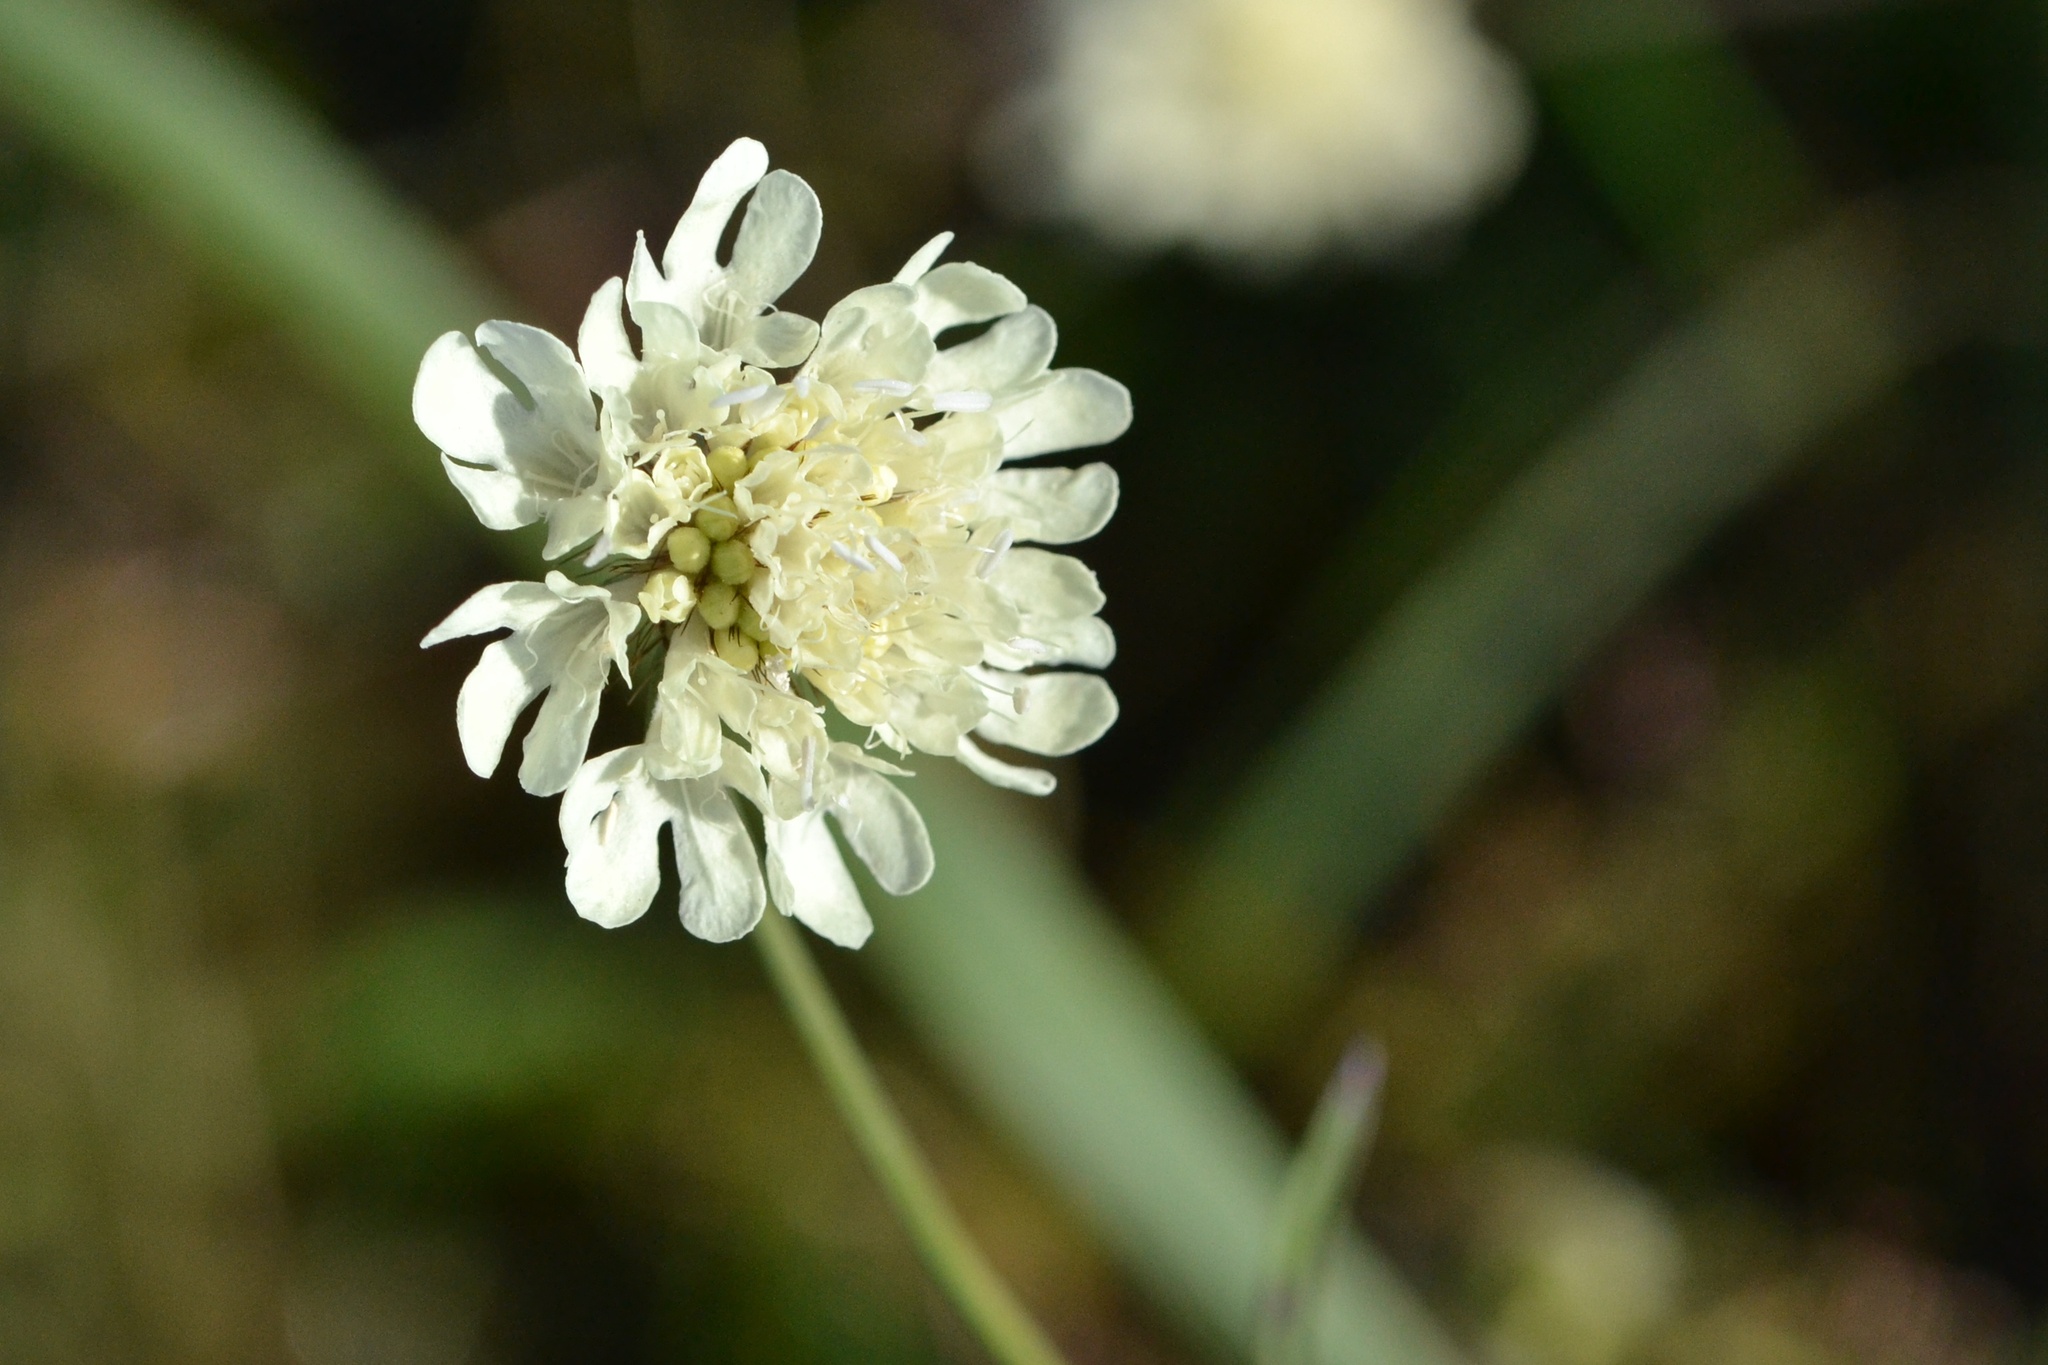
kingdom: Plantae
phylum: Tracheophyta
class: Magnoliopsida
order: Dipsacales
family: Caprifoliaceae
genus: Scabiosa
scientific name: Scabiosa ochroleuca
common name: Cream pincushions
